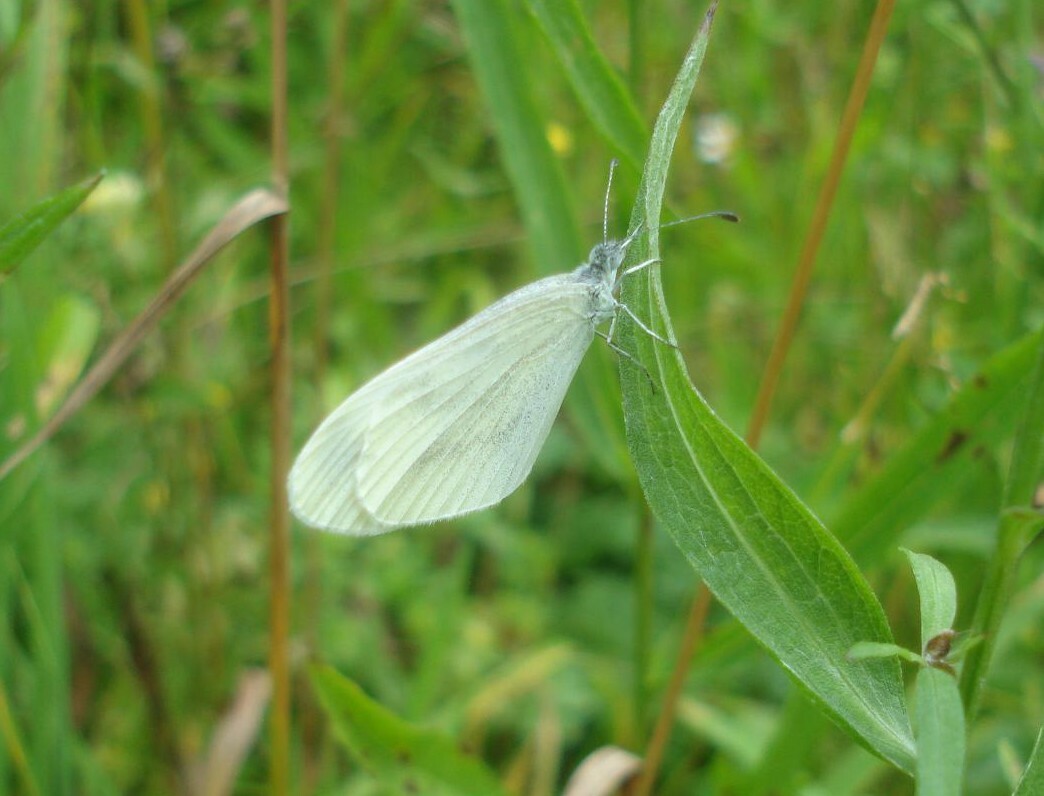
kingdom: Animalia
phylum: Arthropoda
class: Insecta
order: Lepidoptera
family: Pieridae
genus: Leptidea
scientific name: Leptidea
